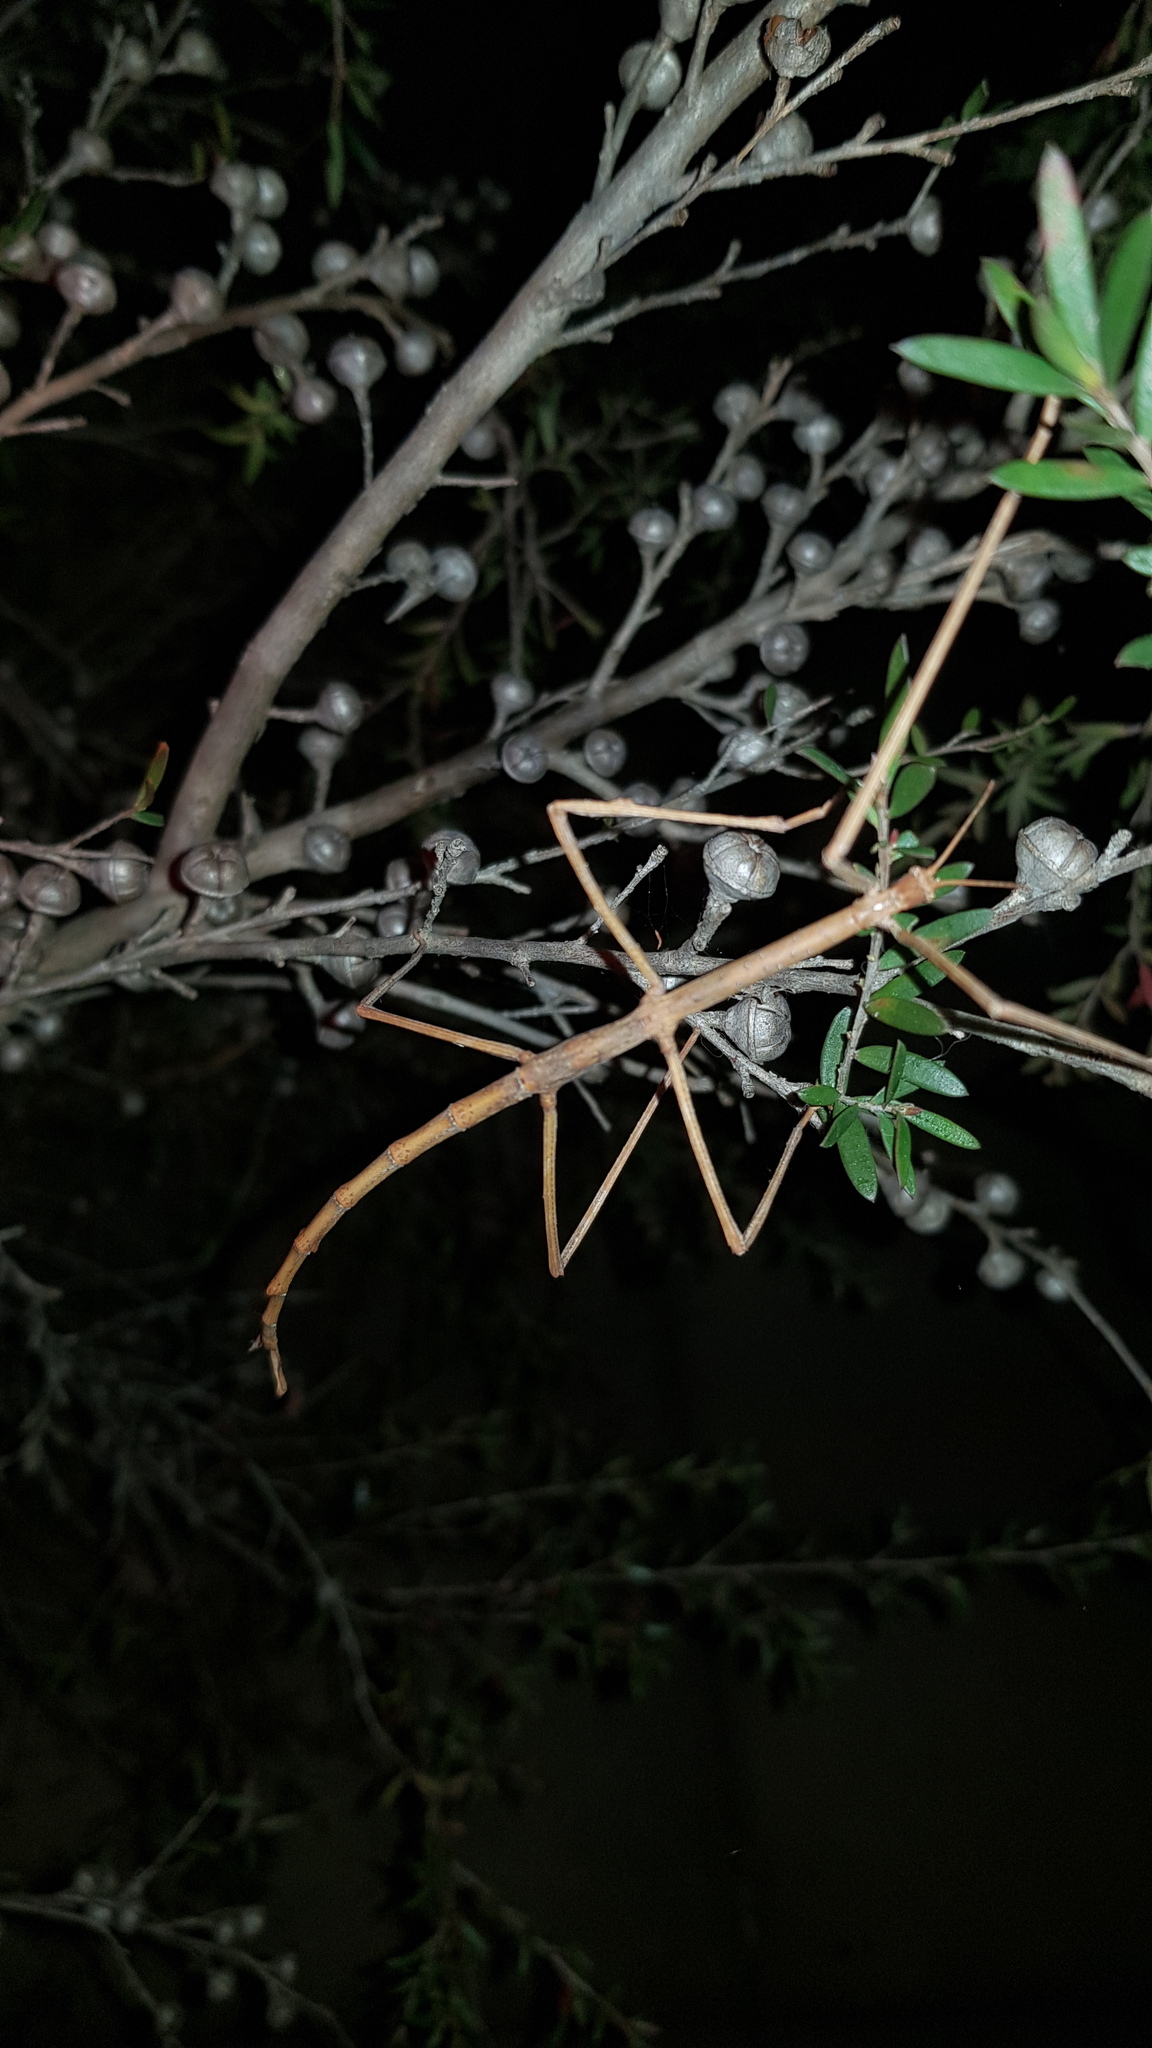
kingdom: Animalia
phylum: Arthropoda
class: Insecta
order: Phasmida
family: Phasmatidae
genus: Ctenomorpha
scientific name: Ctenomorpha marginipennis
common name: Margined-winged stick-insect
